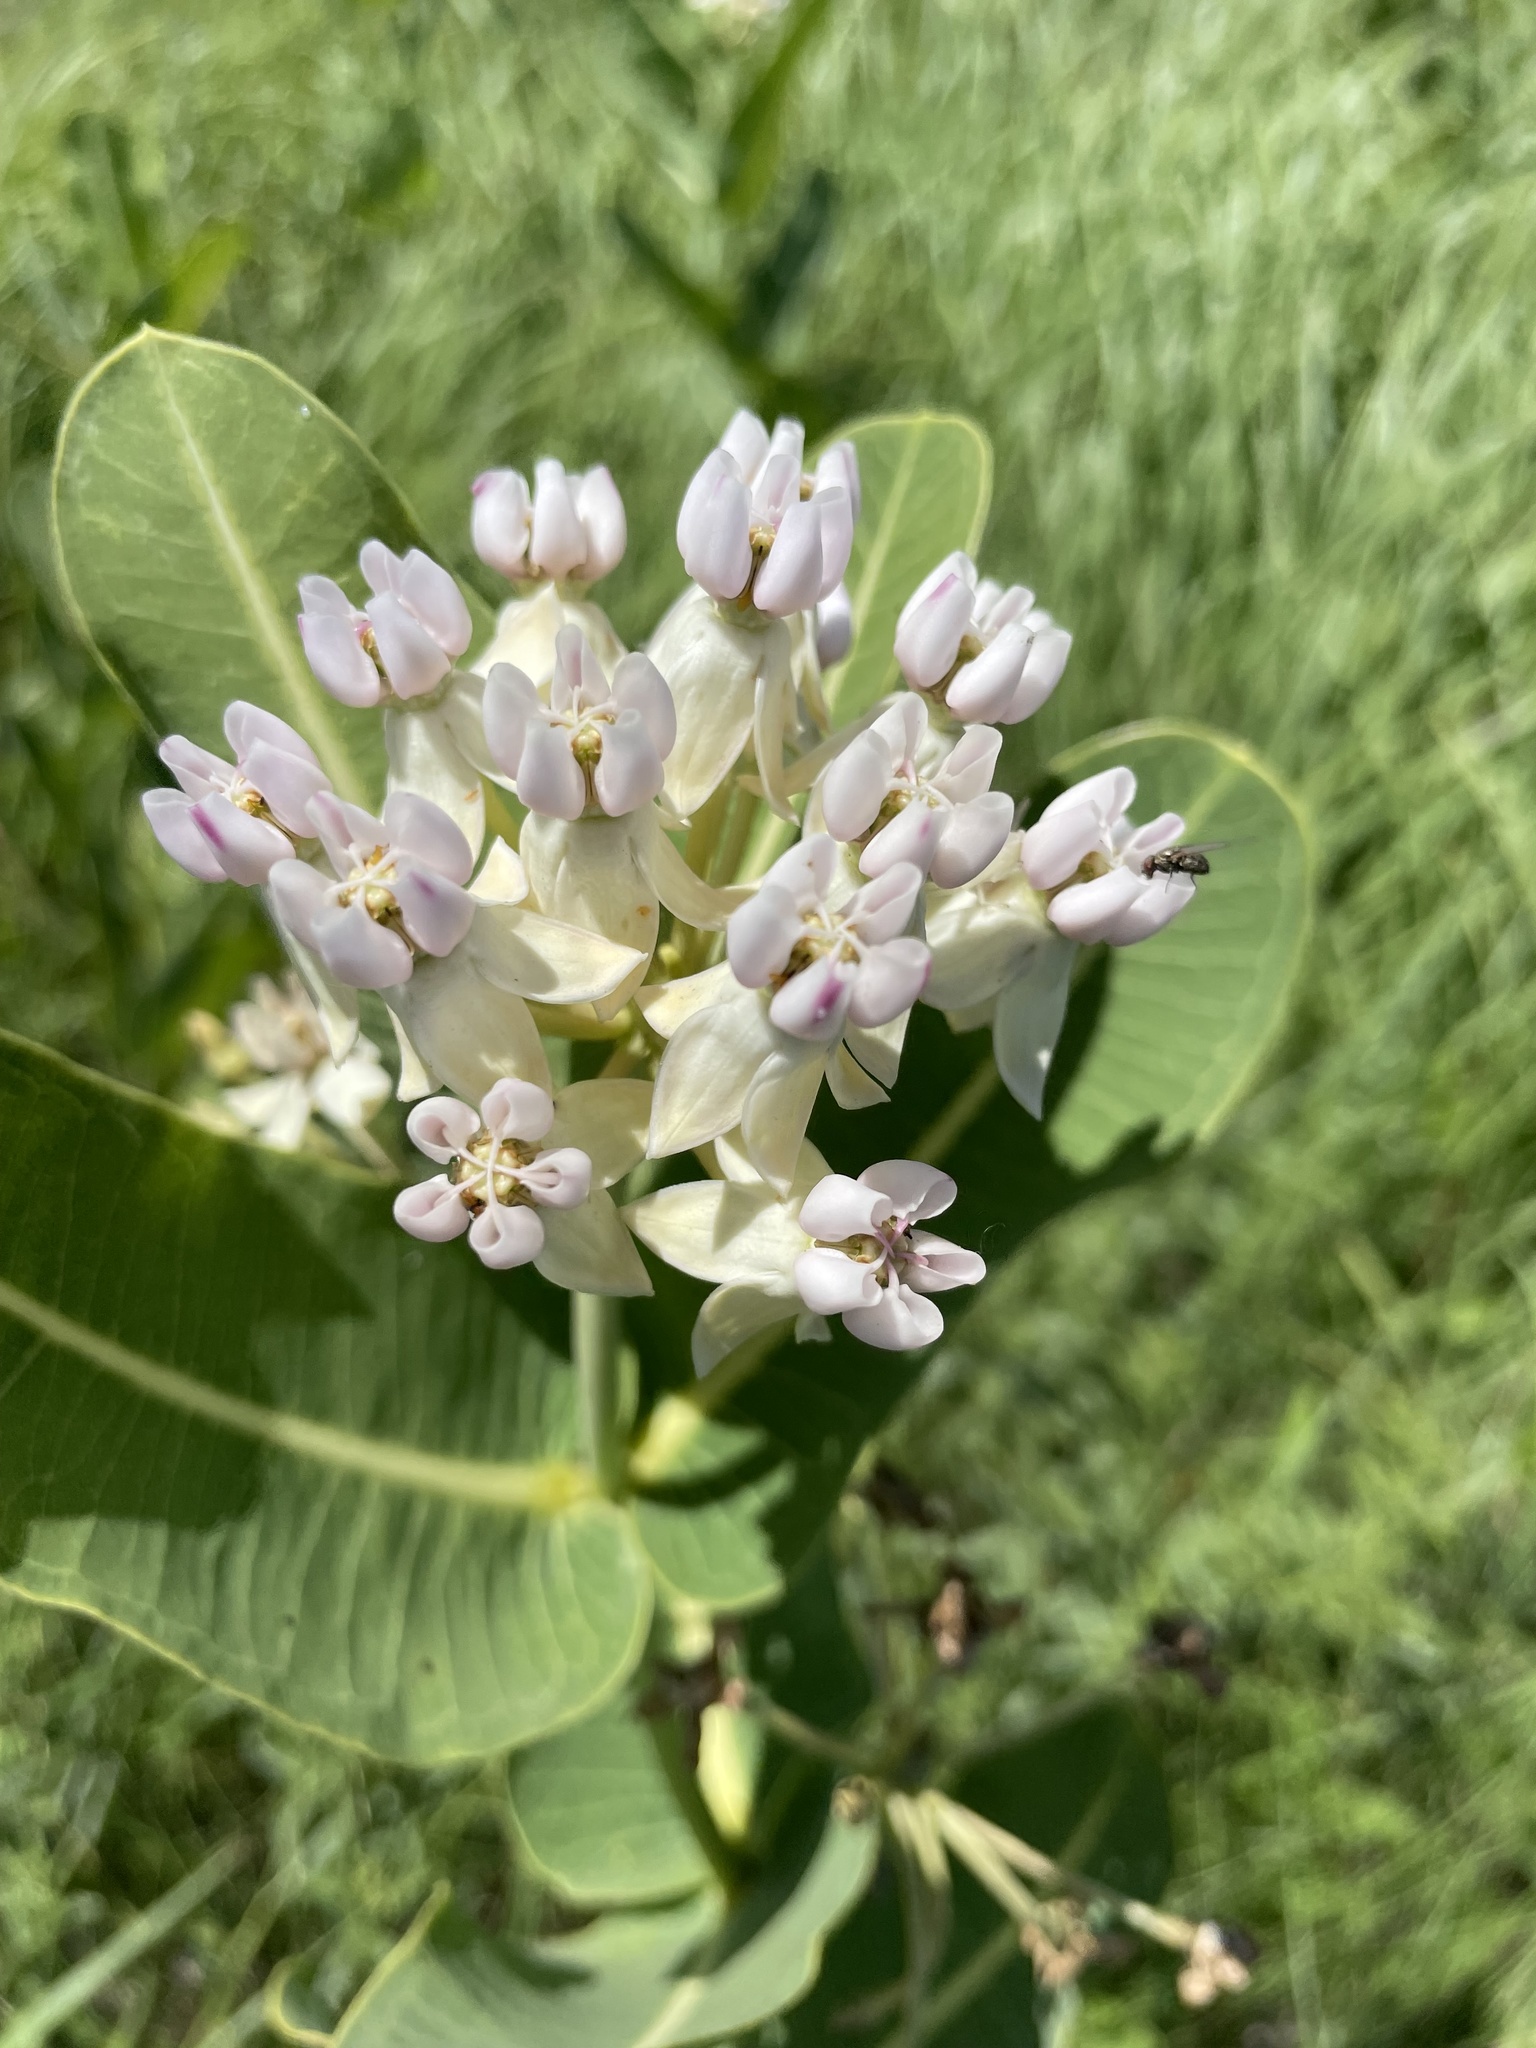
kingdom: Plantae
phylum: Tracheophyta
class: Magnoliopsida
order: Gentianales
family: Apocynaceae
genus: Asclepias
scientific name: Asclepias sullivantii
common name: Prairie milkweed
